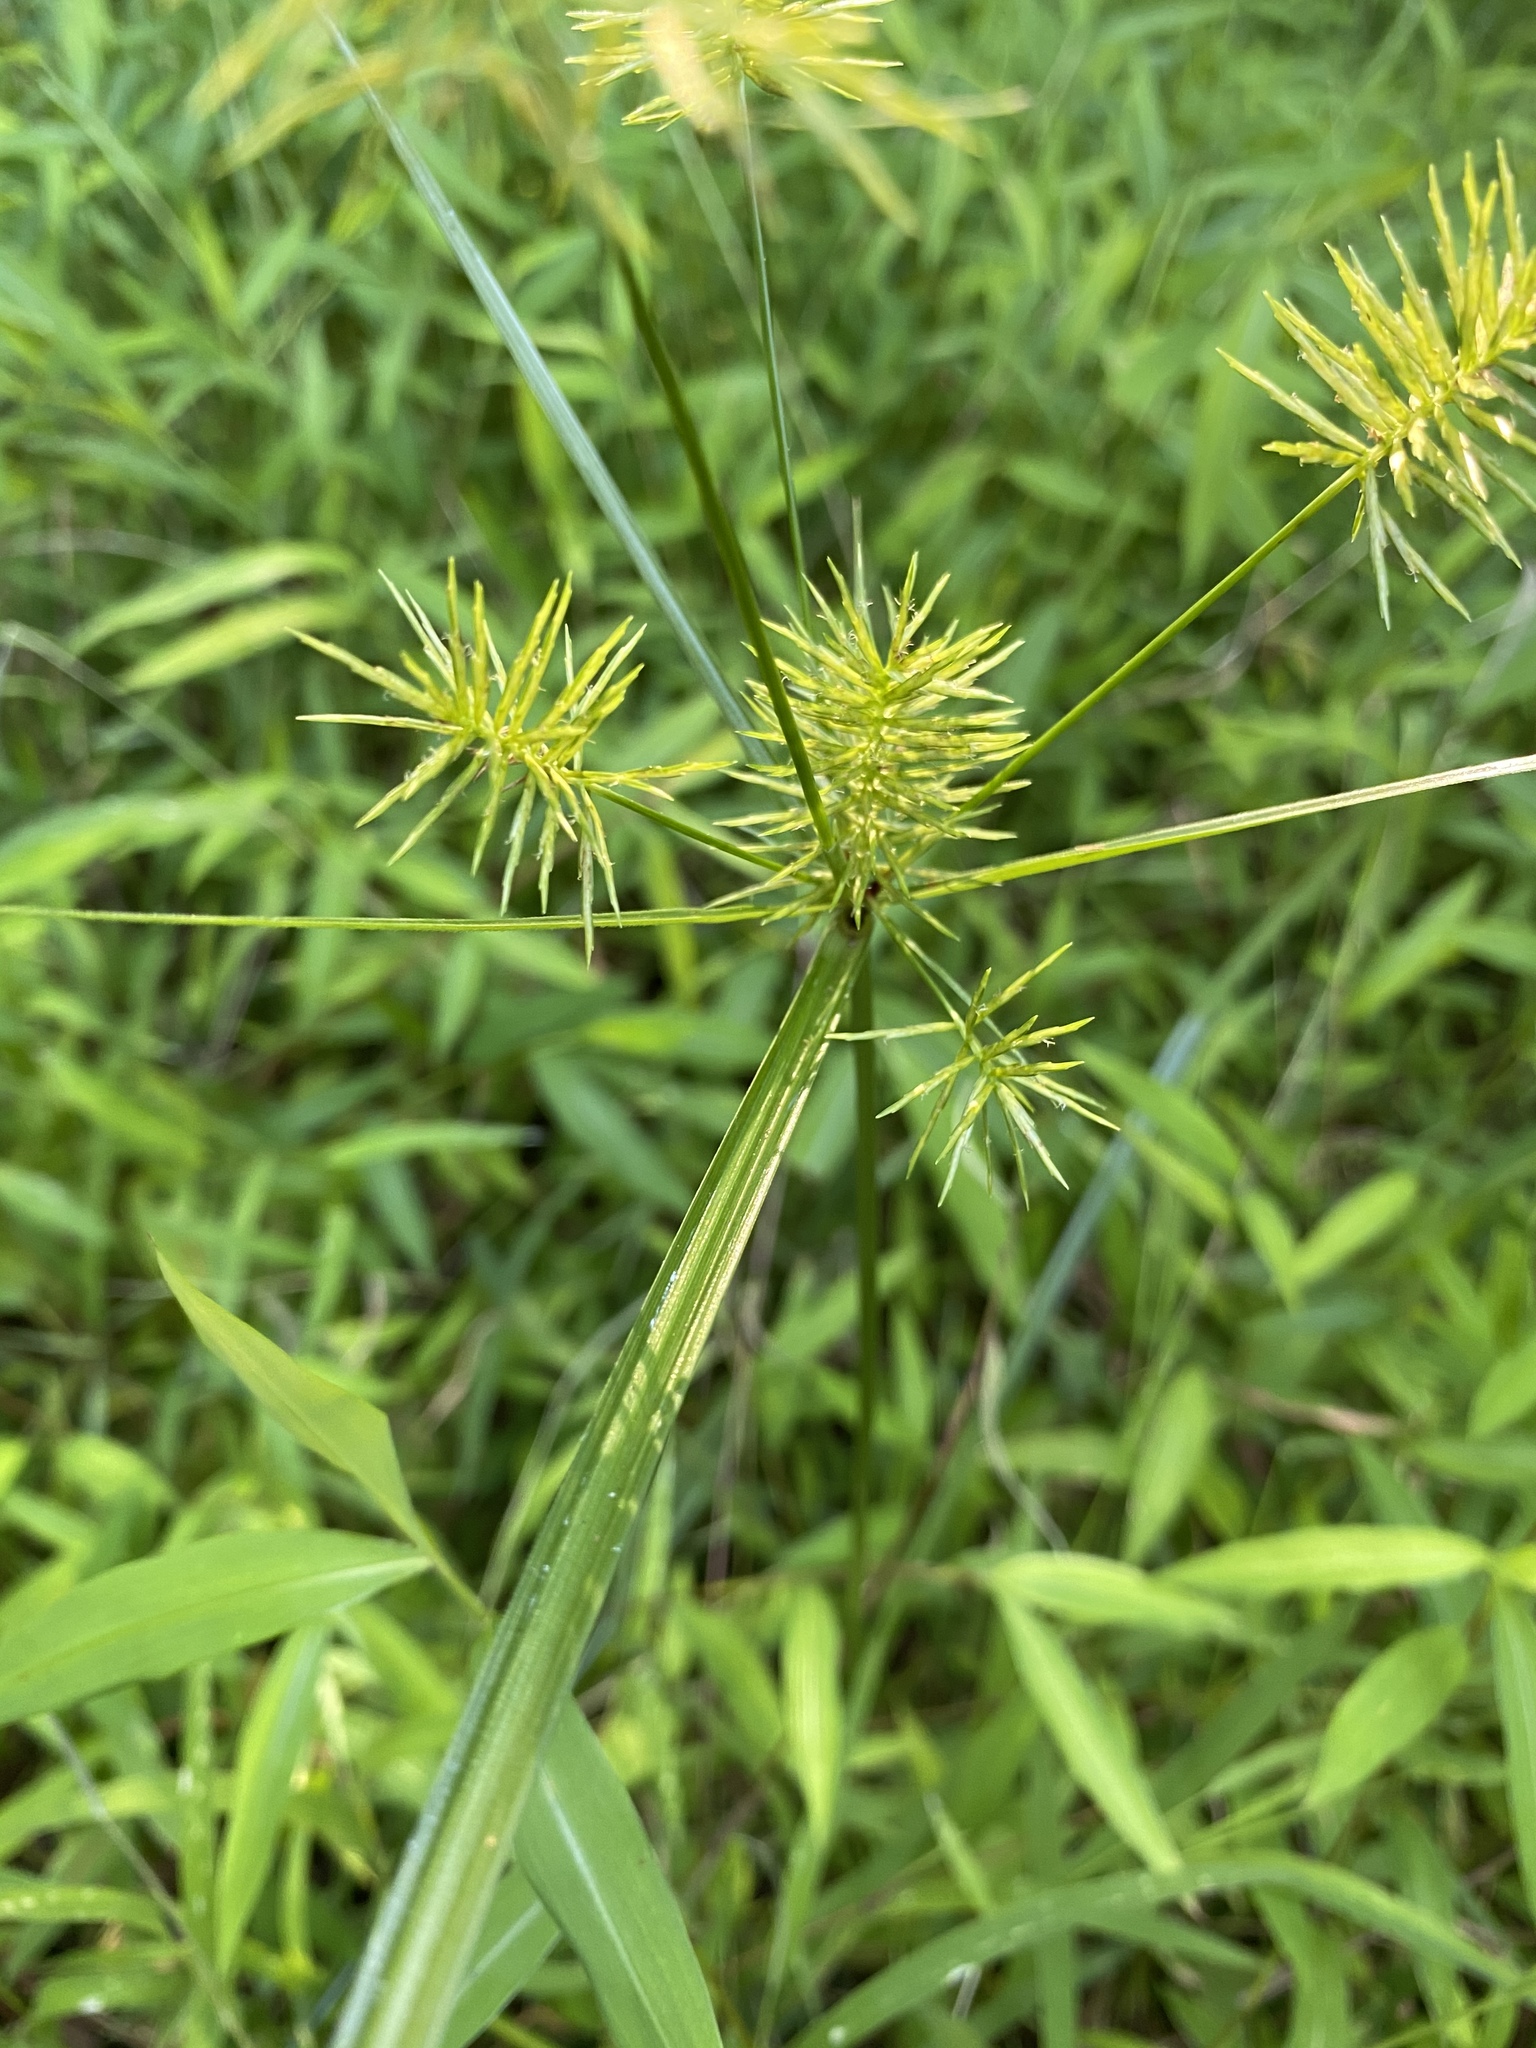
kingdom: Plantae
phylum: Tracheophyta
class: Liliopsida
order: Poales
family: Cyperaceae
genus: Cyperus
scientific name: Cyperus strigosus
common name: False nutsedge
